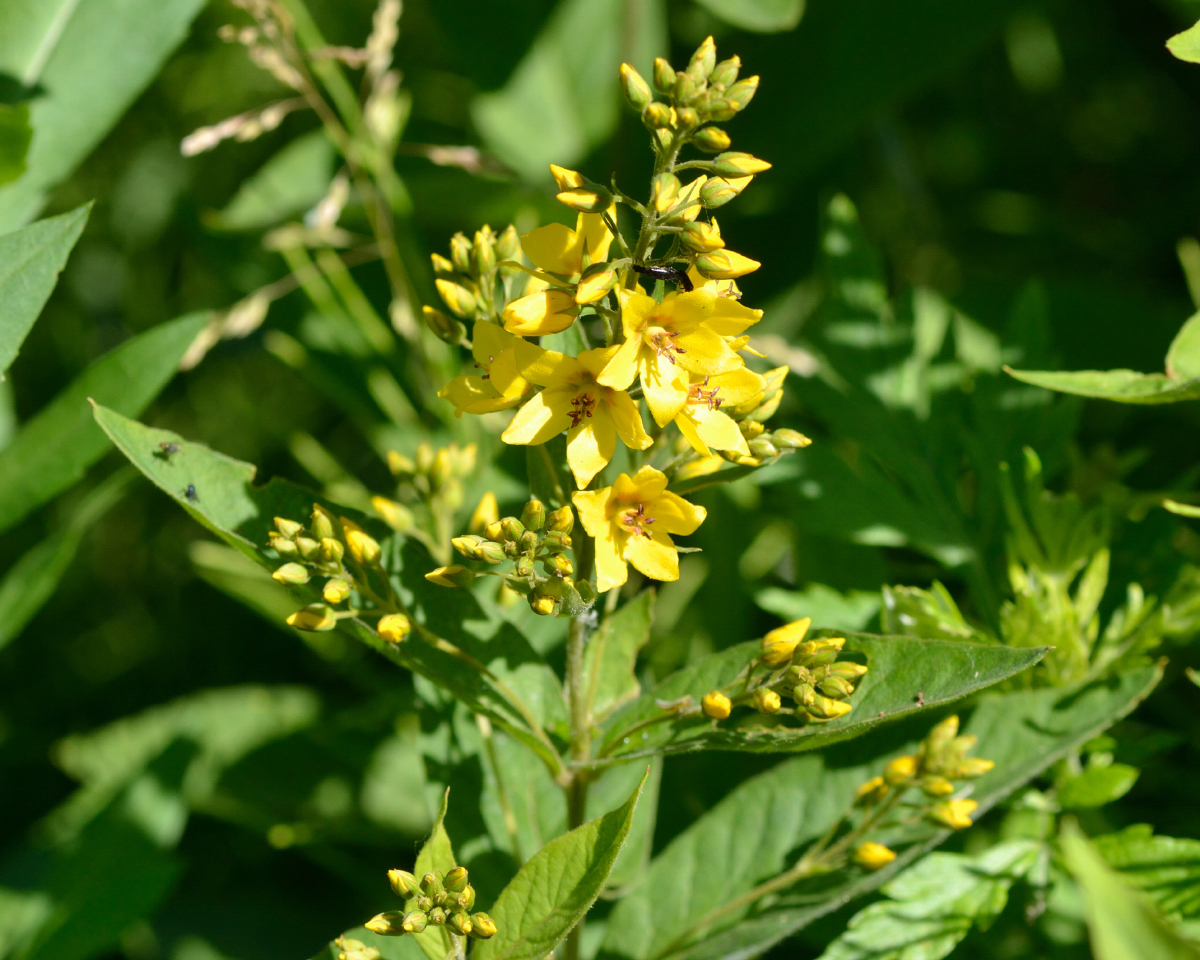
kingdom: Plantae
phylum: Tracheophyta
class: Magnoliopsida
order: Ericales
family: Primulaceae
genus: Lysimachia
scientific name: Lysimachia vulgaris
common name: Yellow loosestrife
